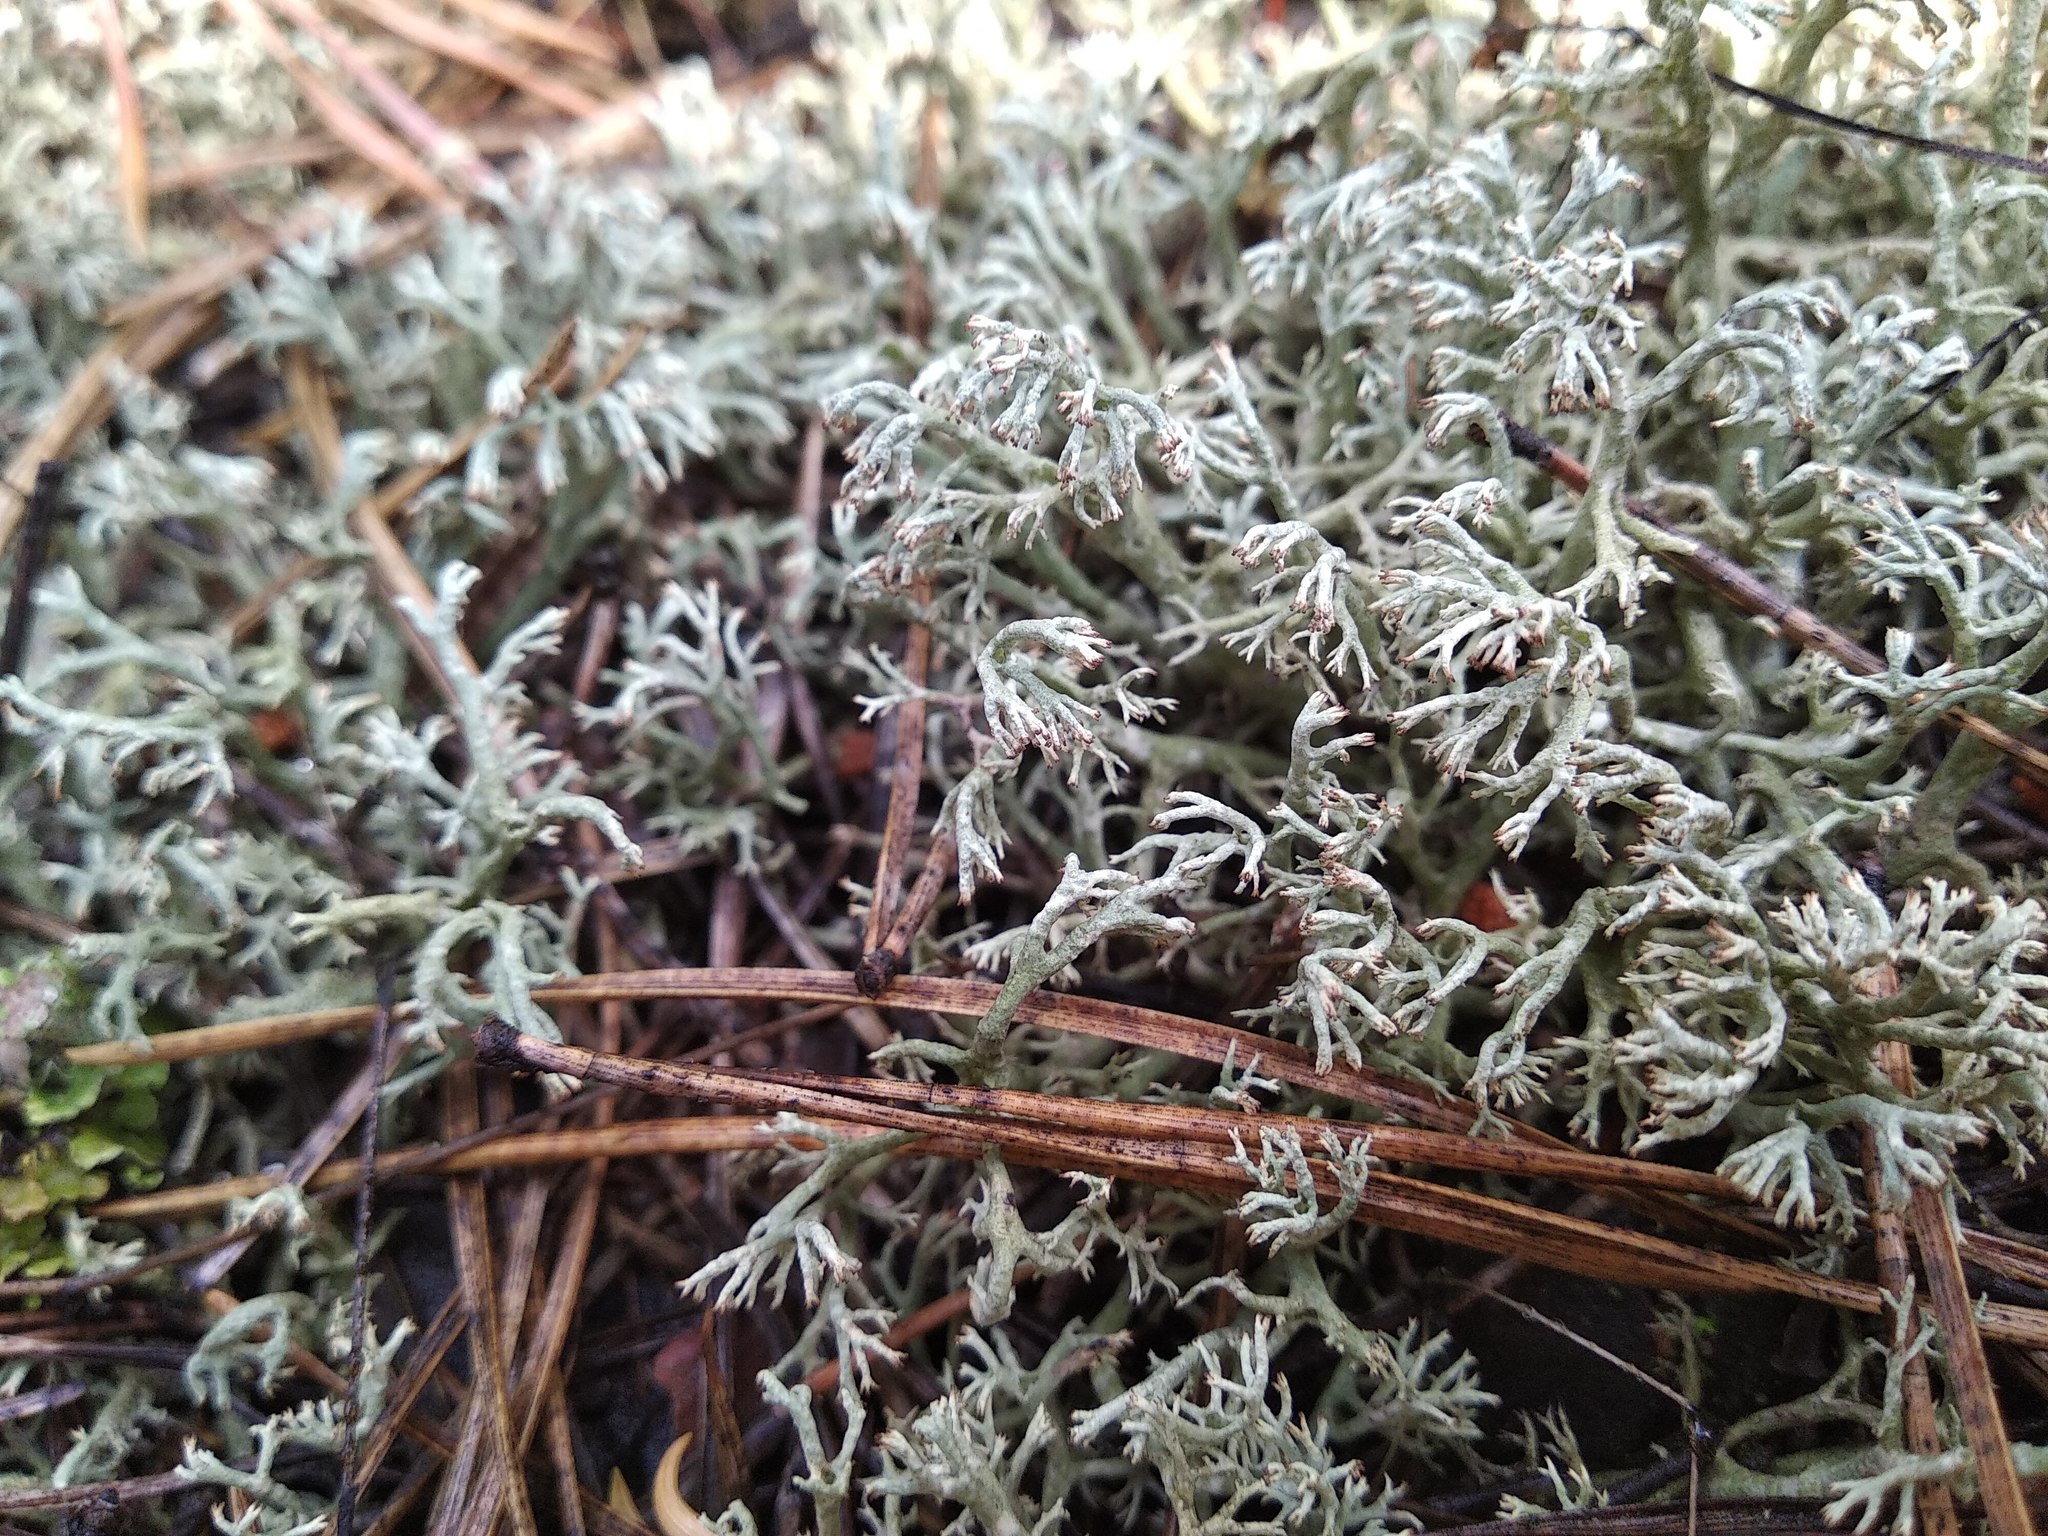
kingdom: Fungi
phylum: Ascomycota
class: Lecanoromycetes
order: Lecanorales
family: Cladoniaceae
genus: Cladonia
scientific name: Cladonia rangiferina
